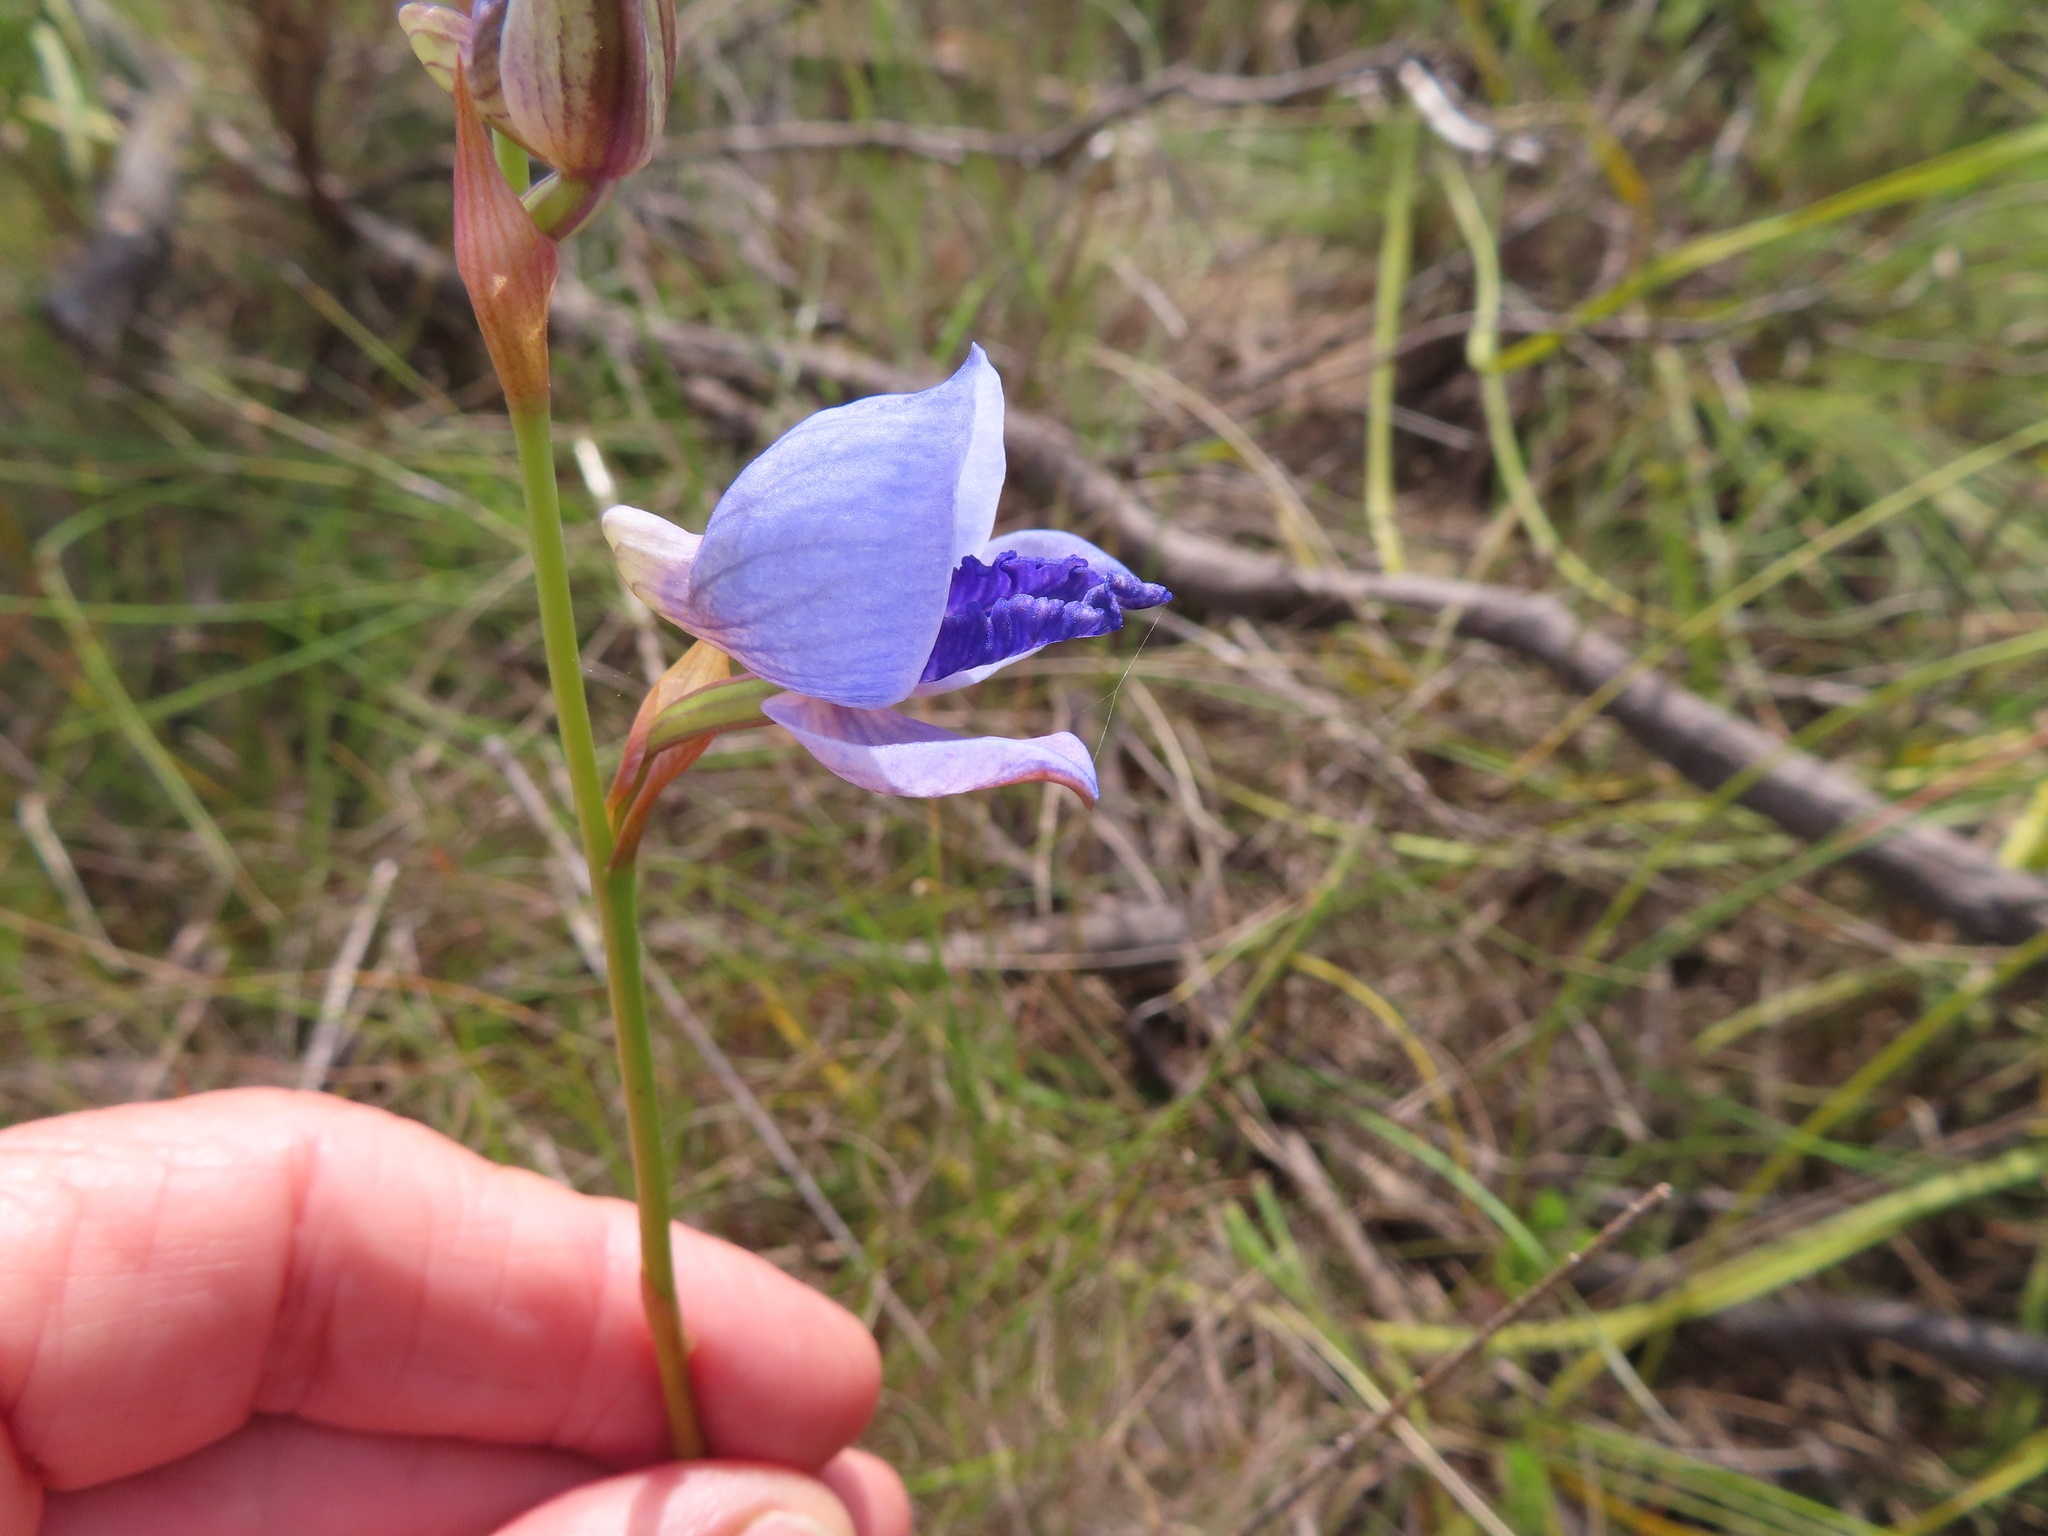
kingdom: Plantae
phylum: Tracheophyta
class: Liliopsida
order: Asparagales
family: Orchidaceae
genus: Disa
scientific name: Disa purpurascens
